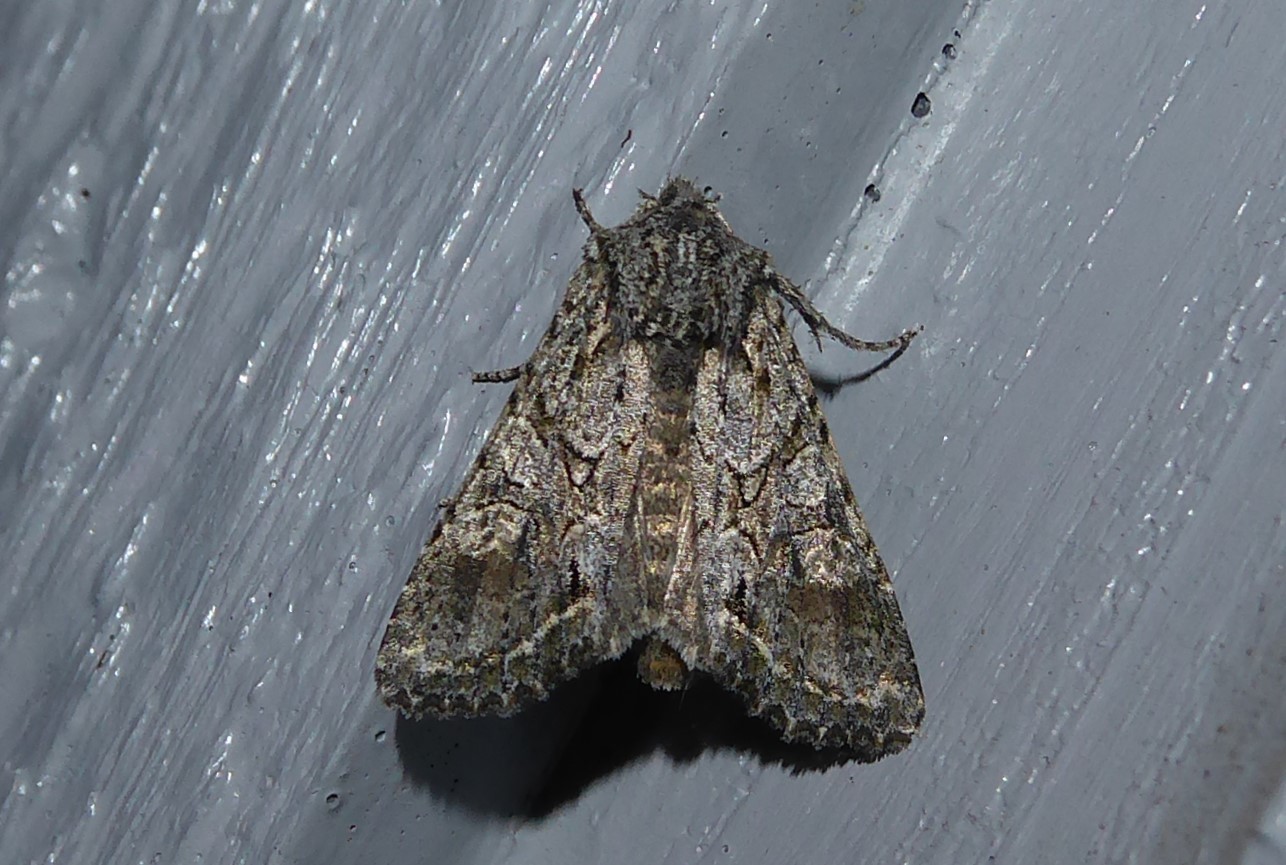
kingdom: Animalia
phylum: Arthropoda
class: Insecta
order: Lepidoptera
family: Noctuidae
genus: Ichneutica
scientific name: Ichneutica mutans
